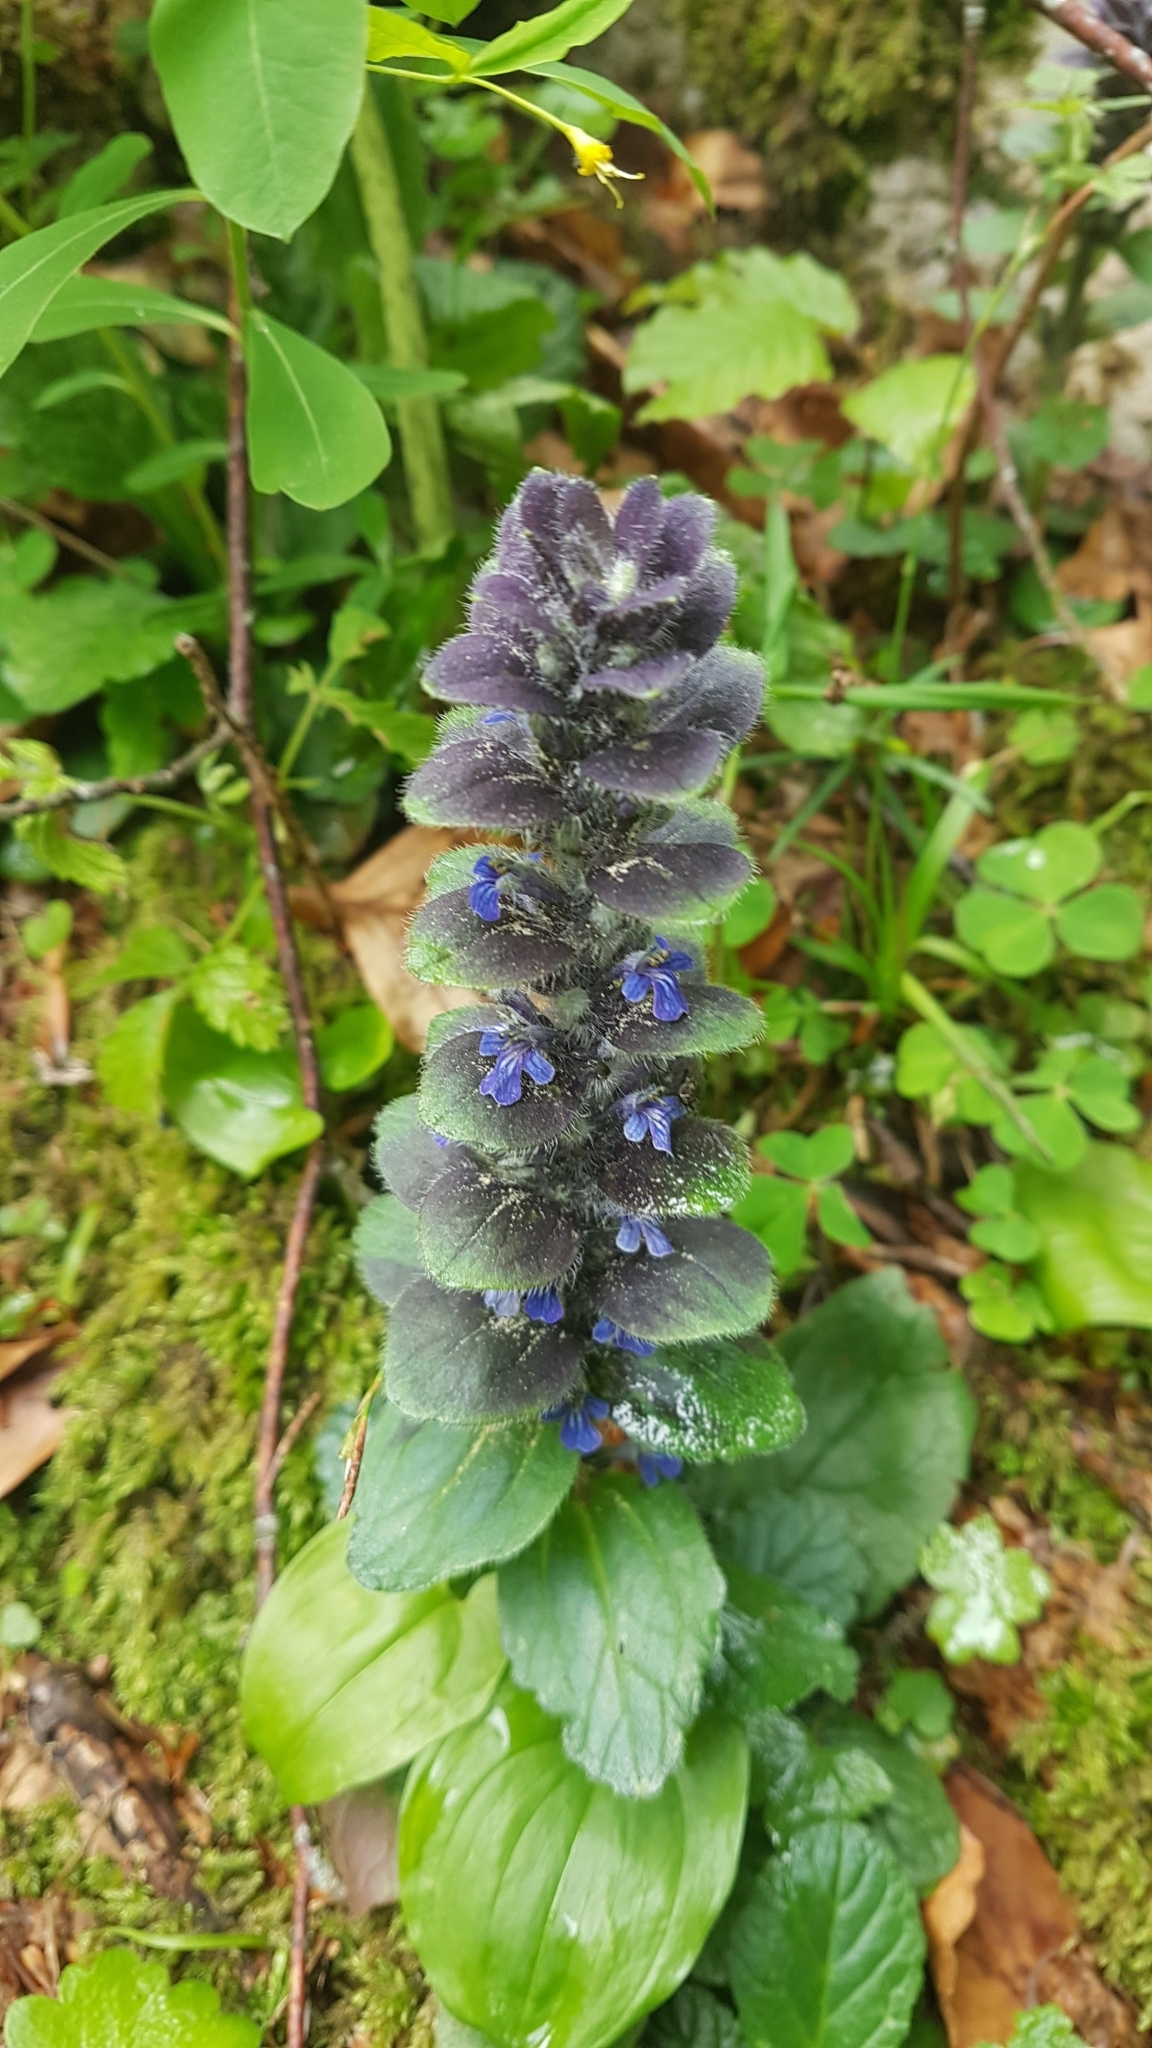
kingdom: Plantae
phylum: Tracheophyta
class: Magnoliopsida
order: Lamiales
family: Lamiaceae
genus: Ajuga
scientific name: Ajuga pyramidalis
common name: Pyramid bugle
